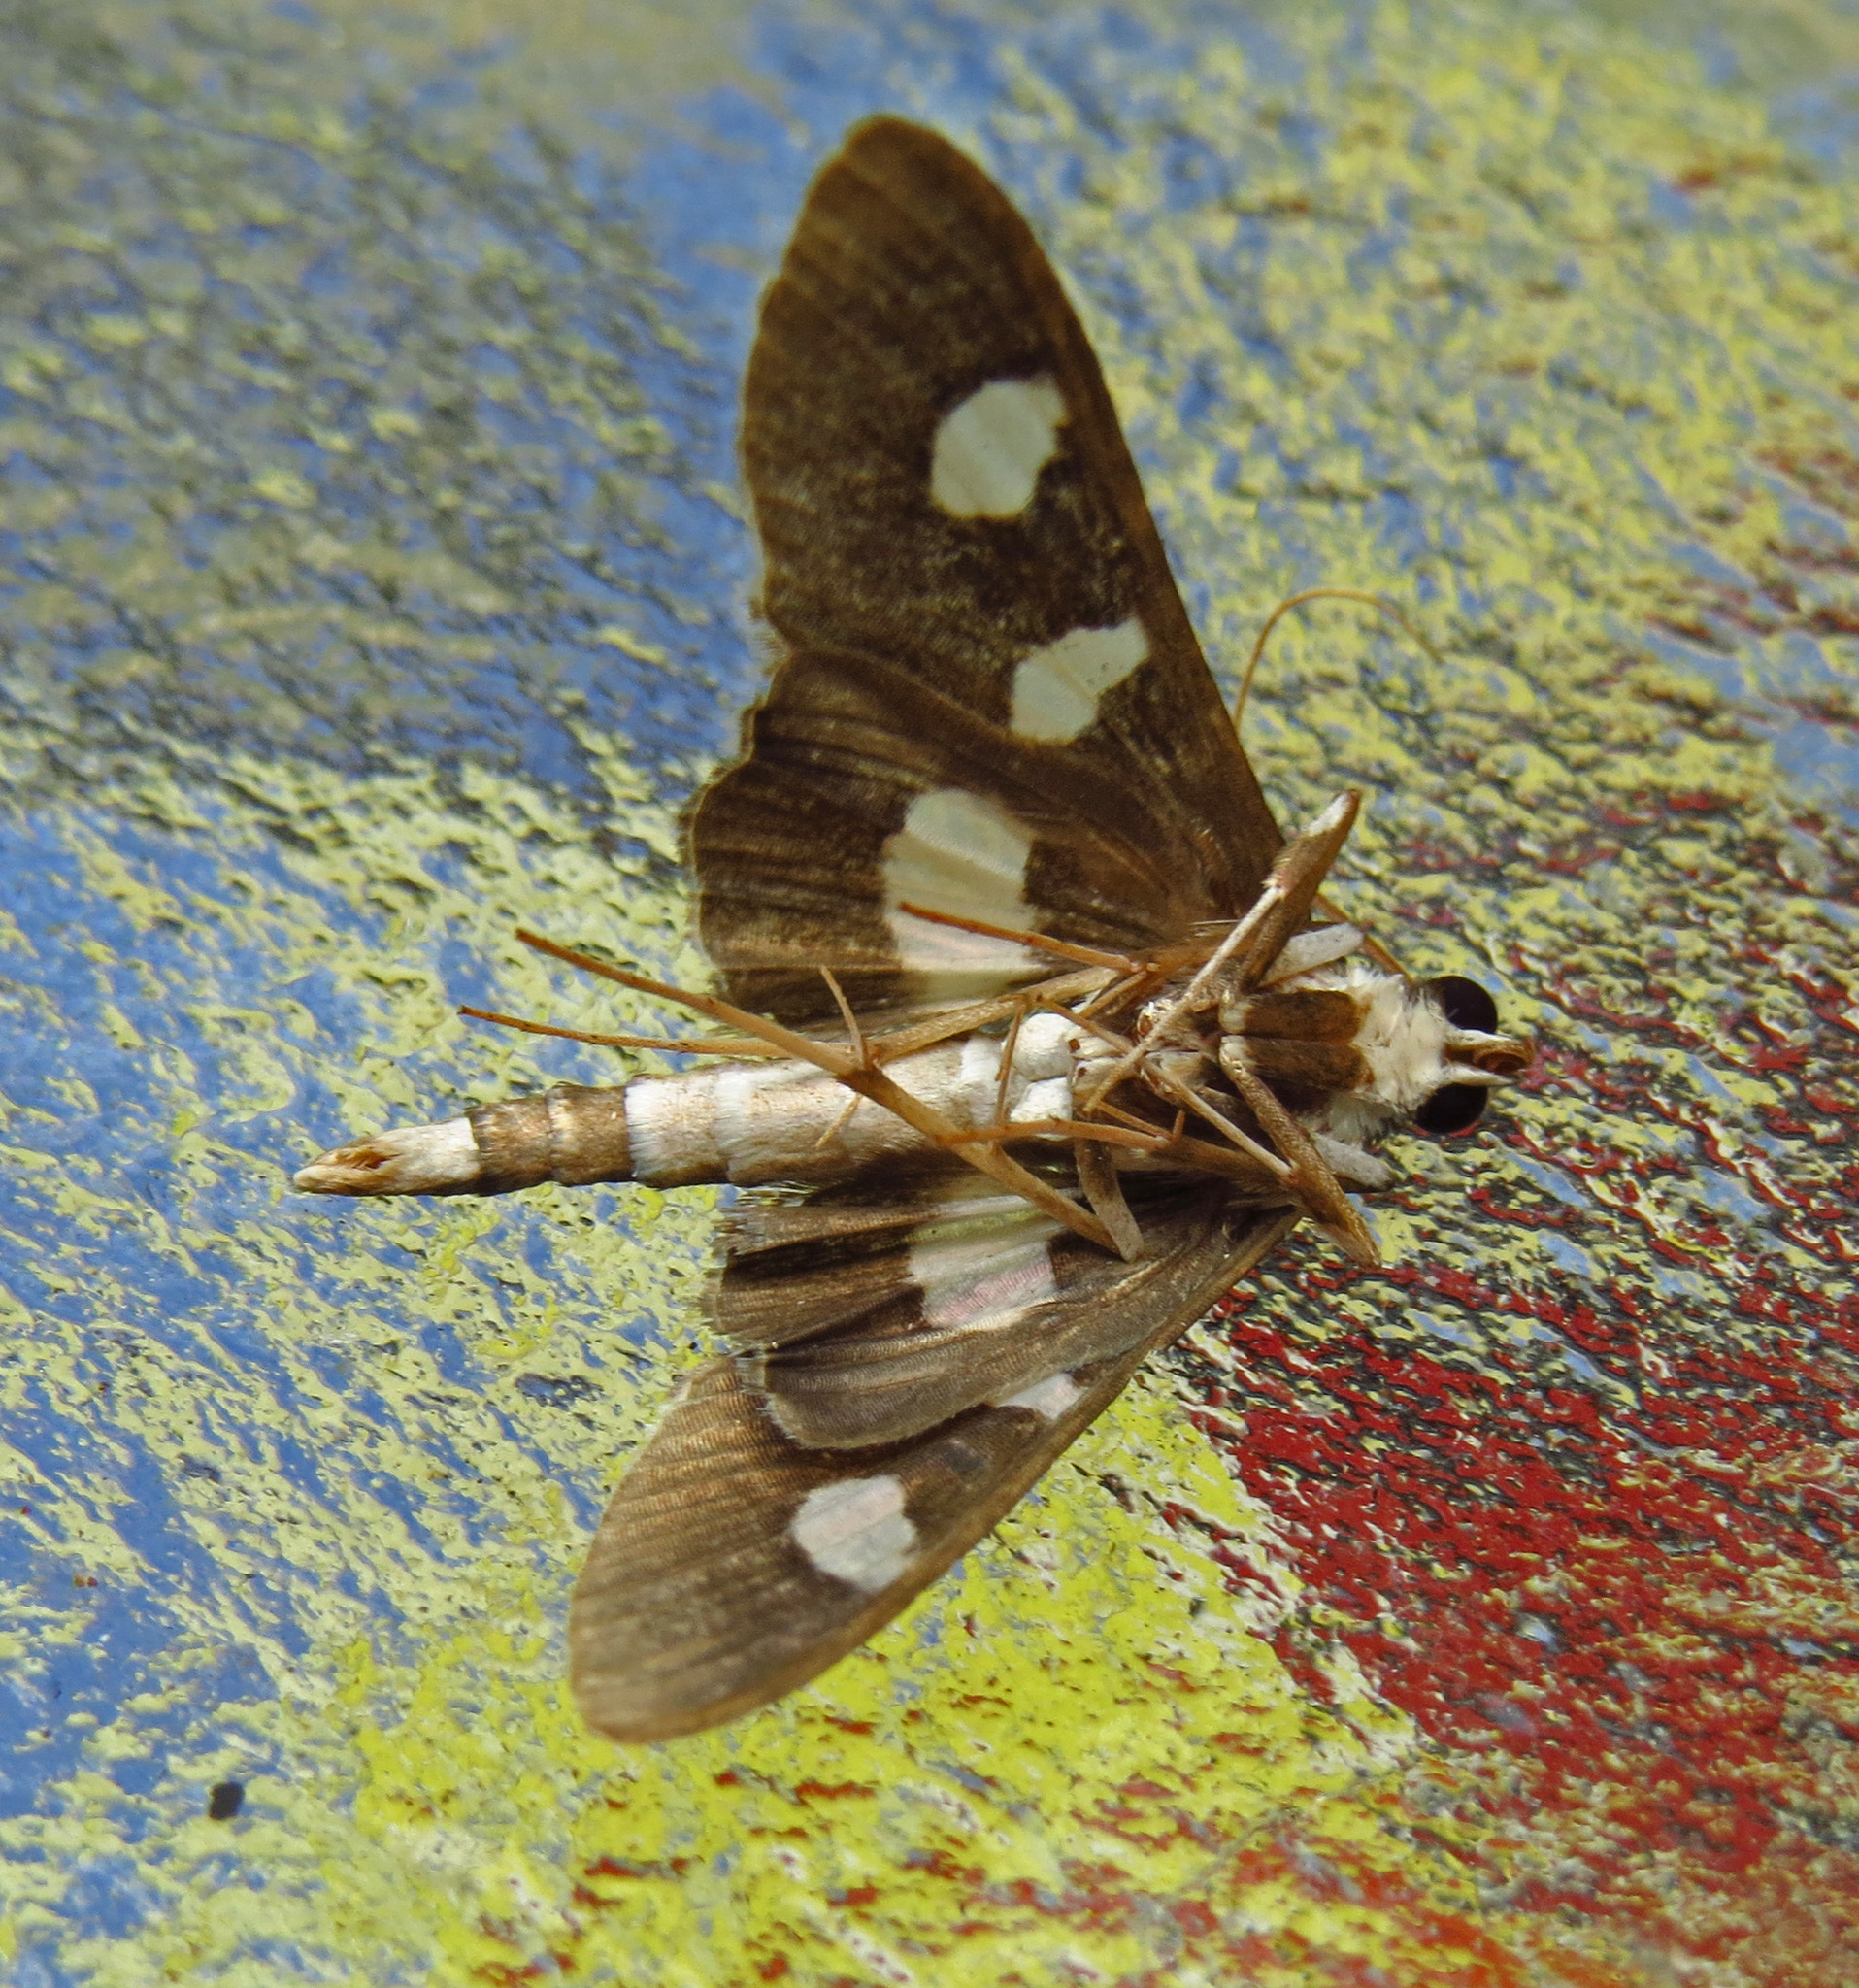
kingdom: Animalia
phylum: Arthropoda
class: Insecta
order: Lepidoptera
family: Crambidae
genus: Desmia
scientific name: Desmia funeralis
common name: Grape leaf folder moth
